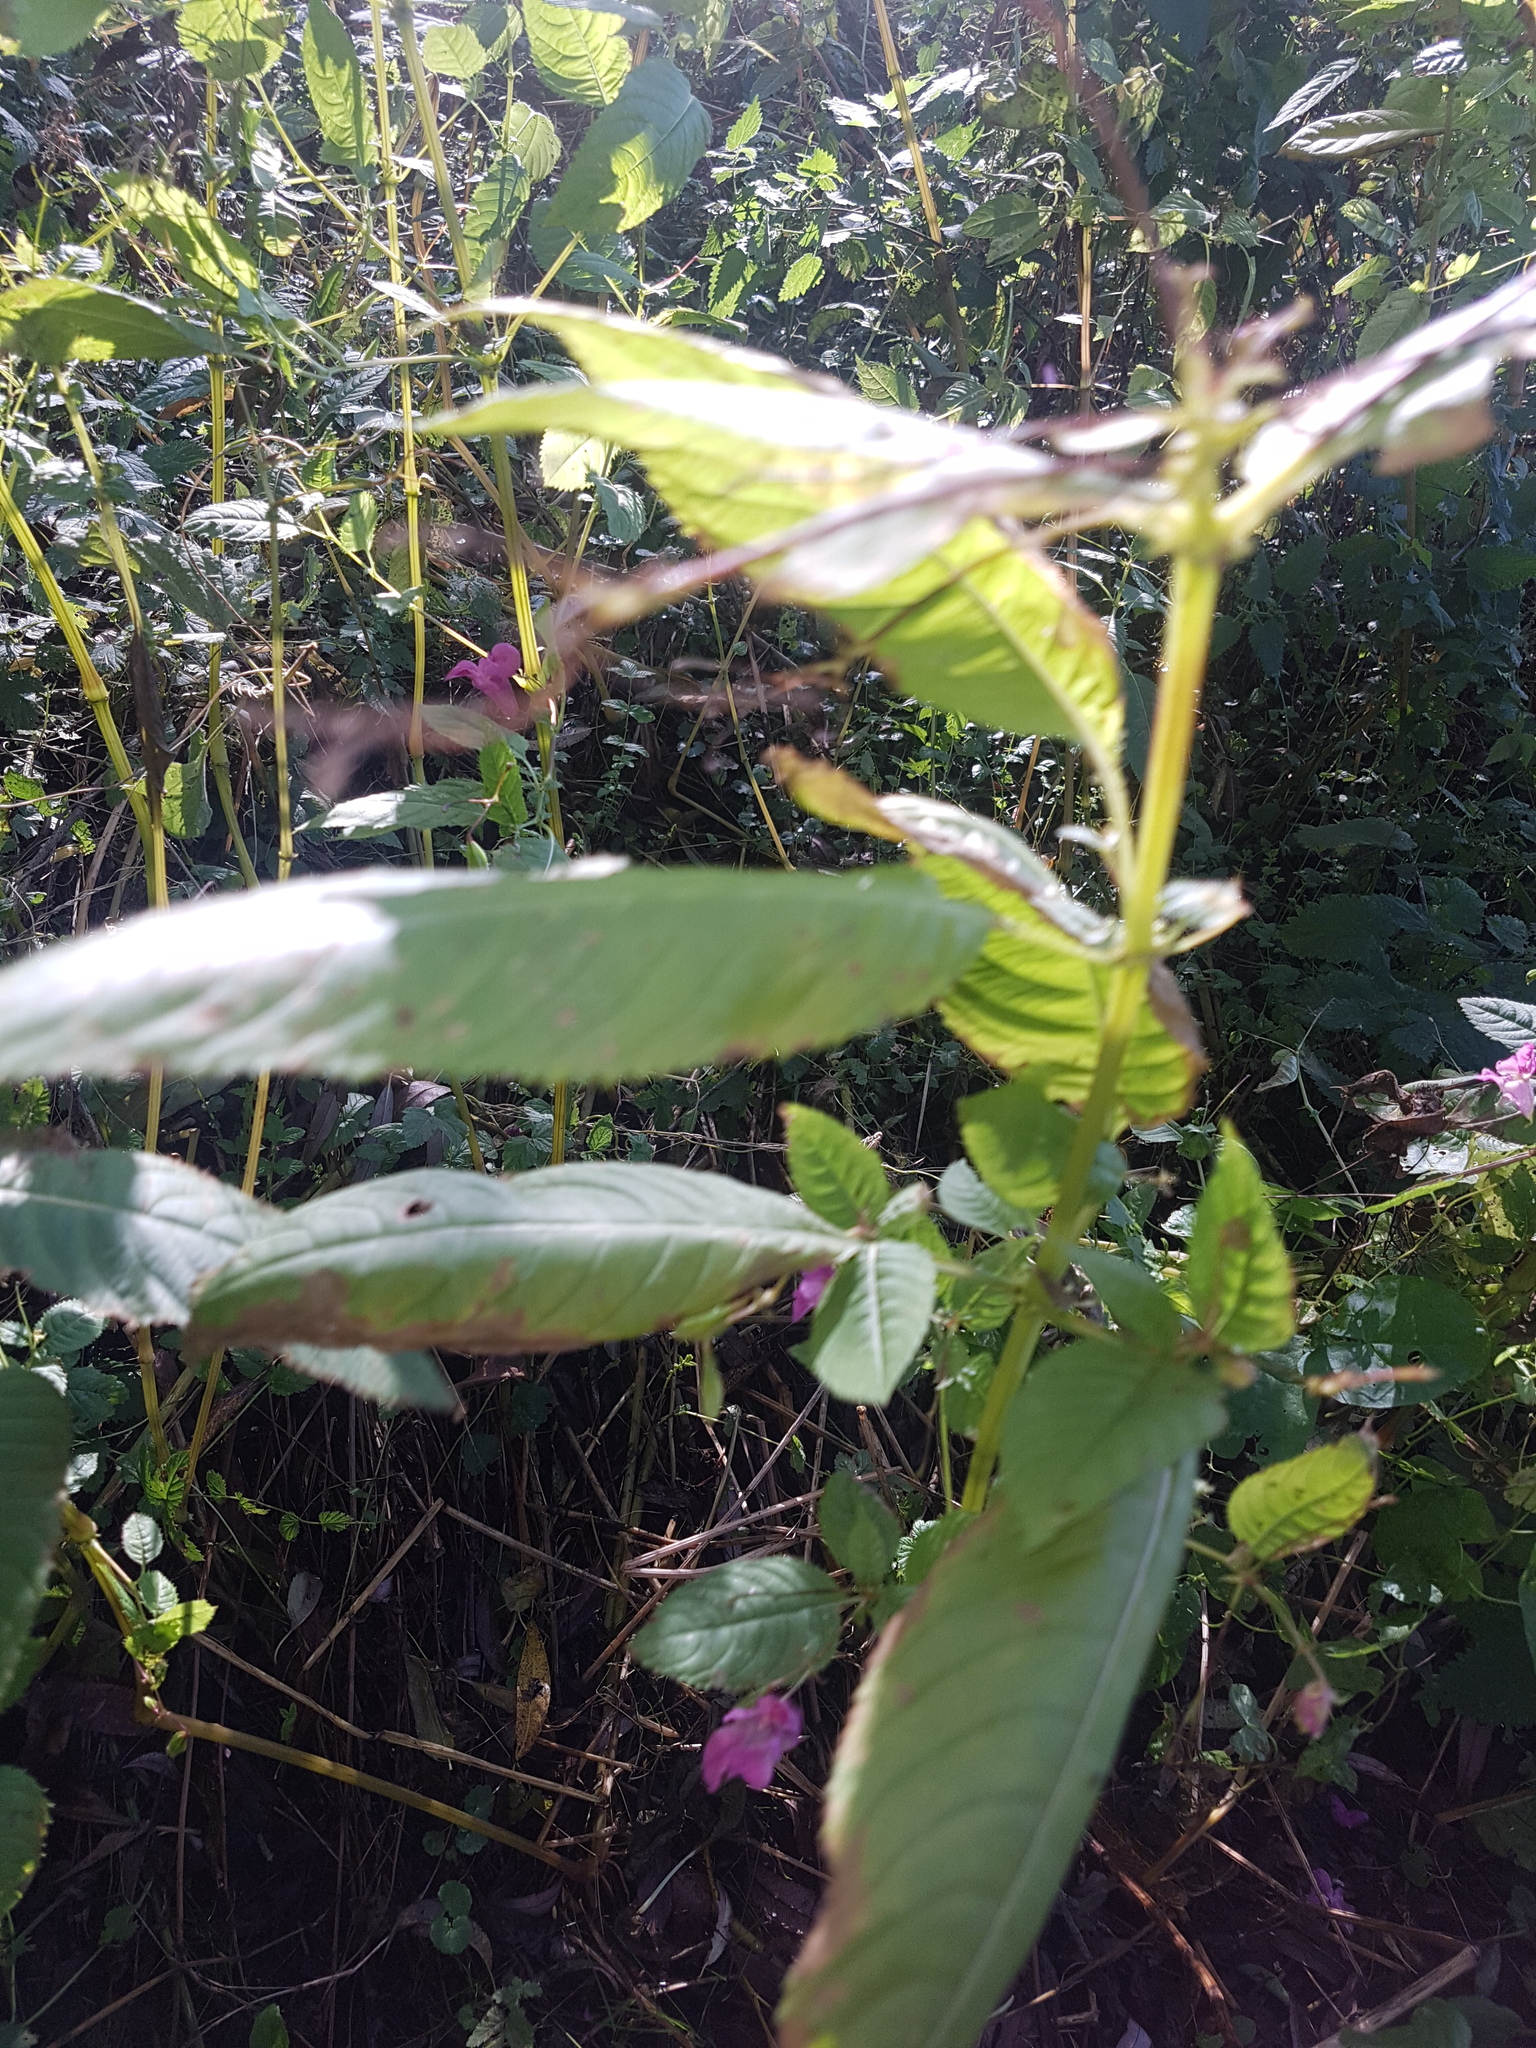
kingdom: Plantae
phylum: Tracheophyta
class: Magnoliopsida
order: Ericales
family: Balsaminaceae
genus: Impatiens
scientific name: Impatiens glandulifera
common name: Himalayan balsam
